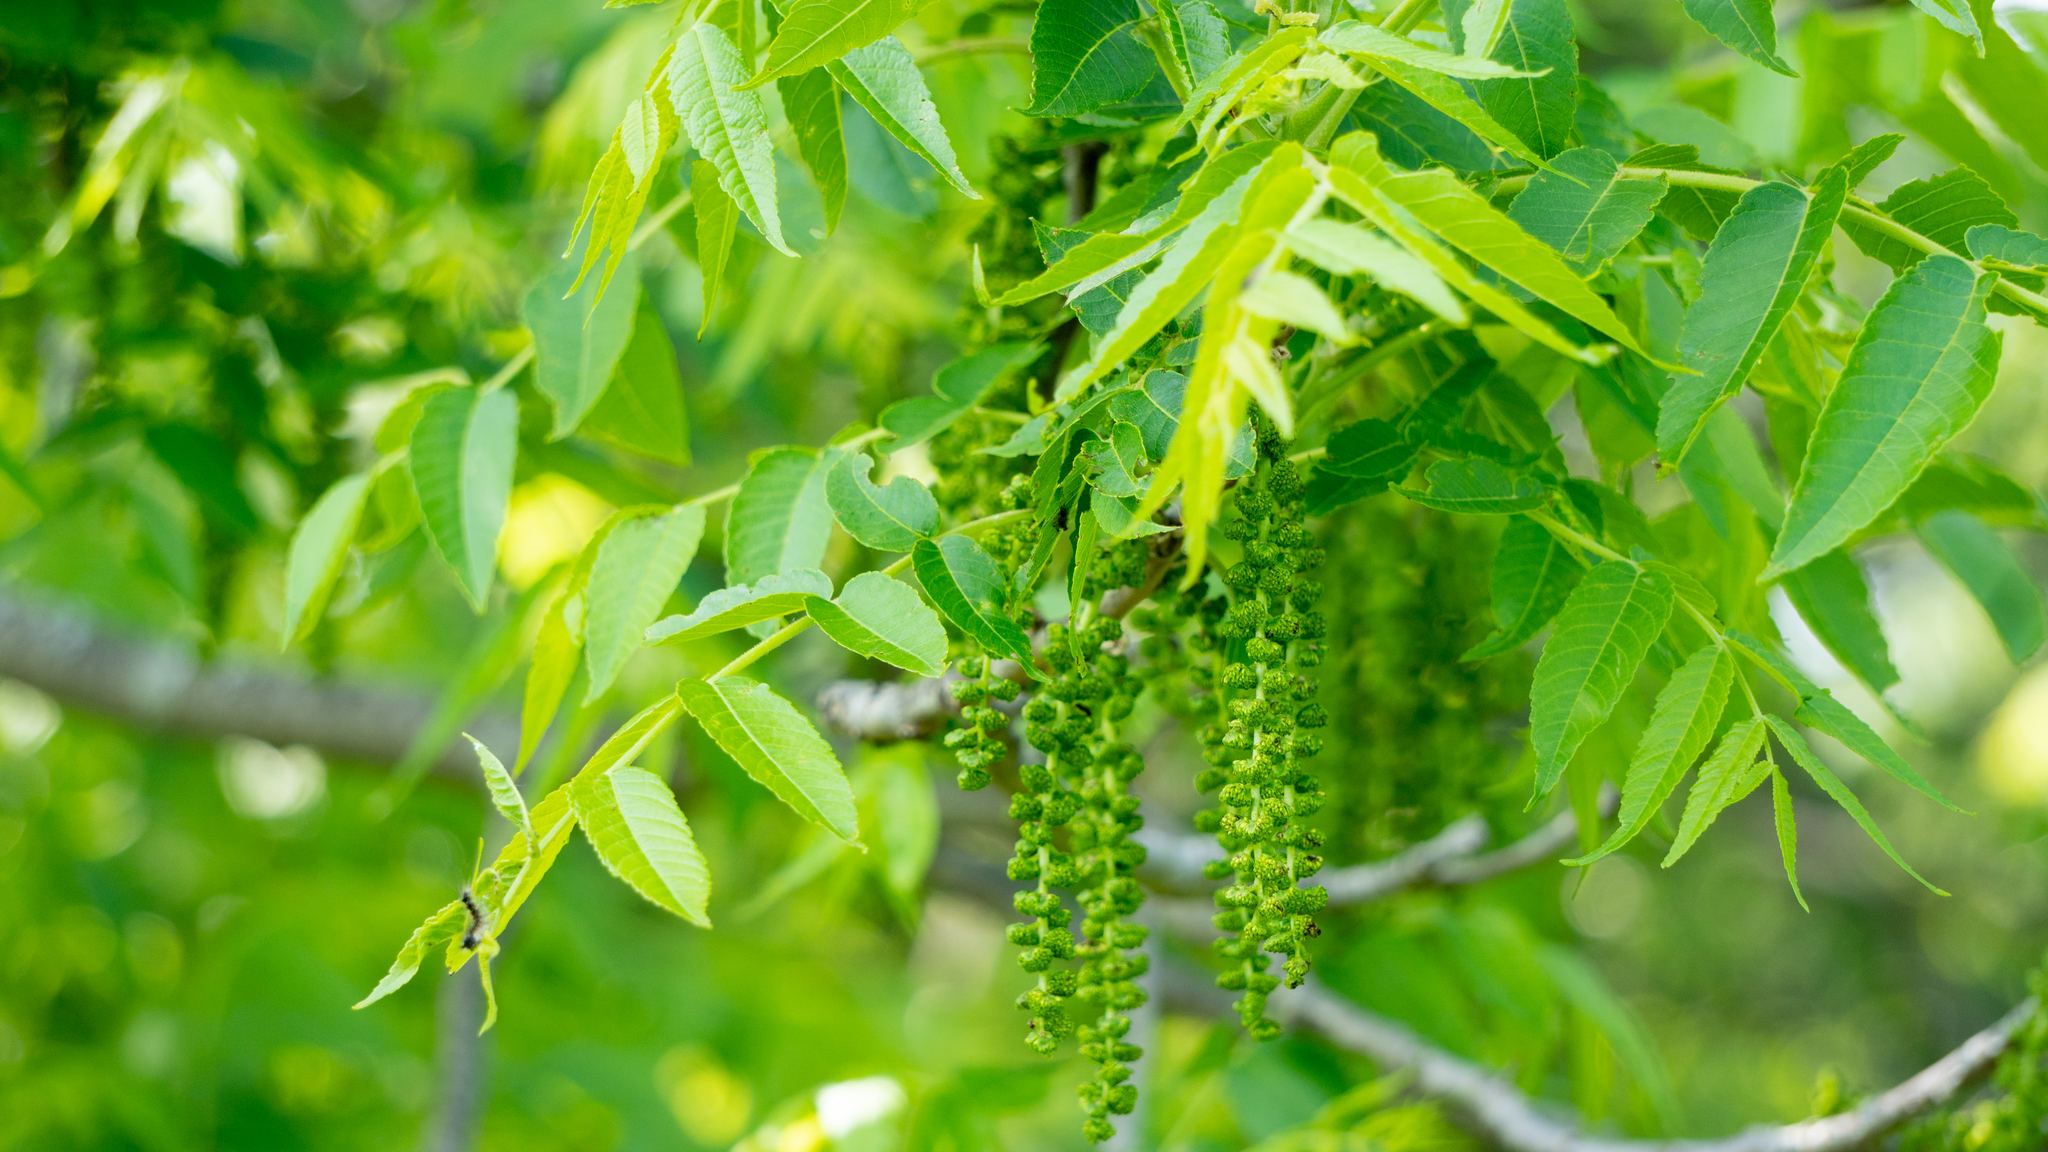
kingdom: Plantae
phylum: Tracheophyta
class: Magnoliopsida
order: Fagales
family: Juglandaceae
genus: Juglans
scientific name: Juglans nigra
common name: Black walnut
